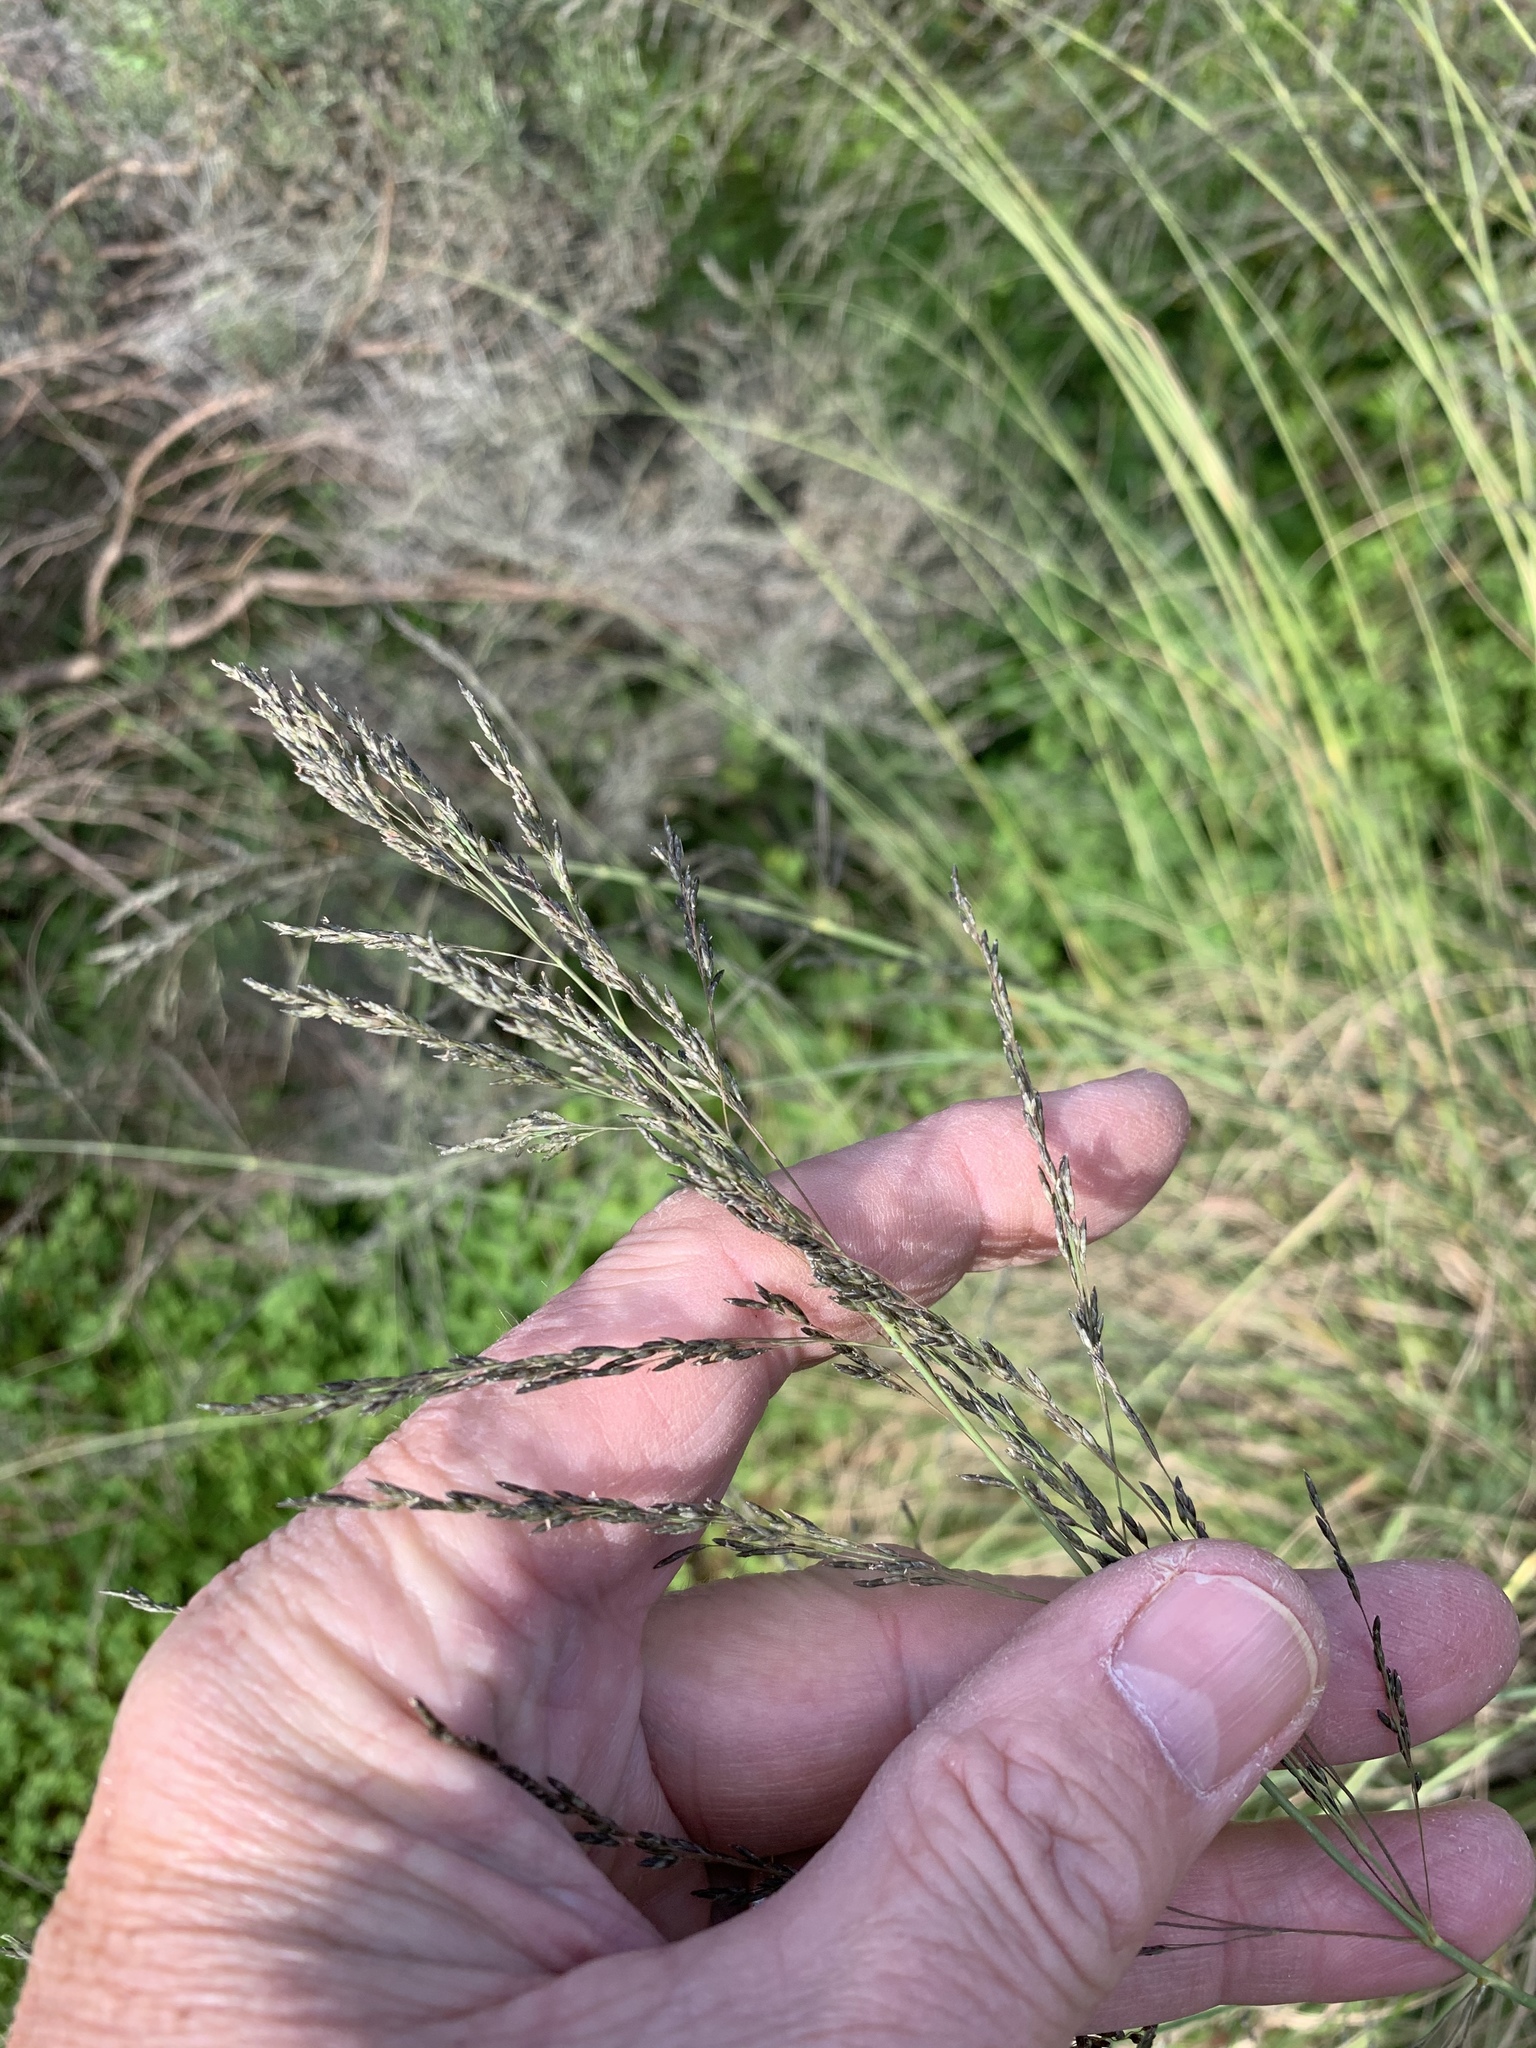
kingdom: Plantae
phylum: Tracheophyta
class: Liliopsida
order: Poales
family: Poaceae
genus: Eragrostis
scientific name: Eragrostis curvula
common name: African love-grass
